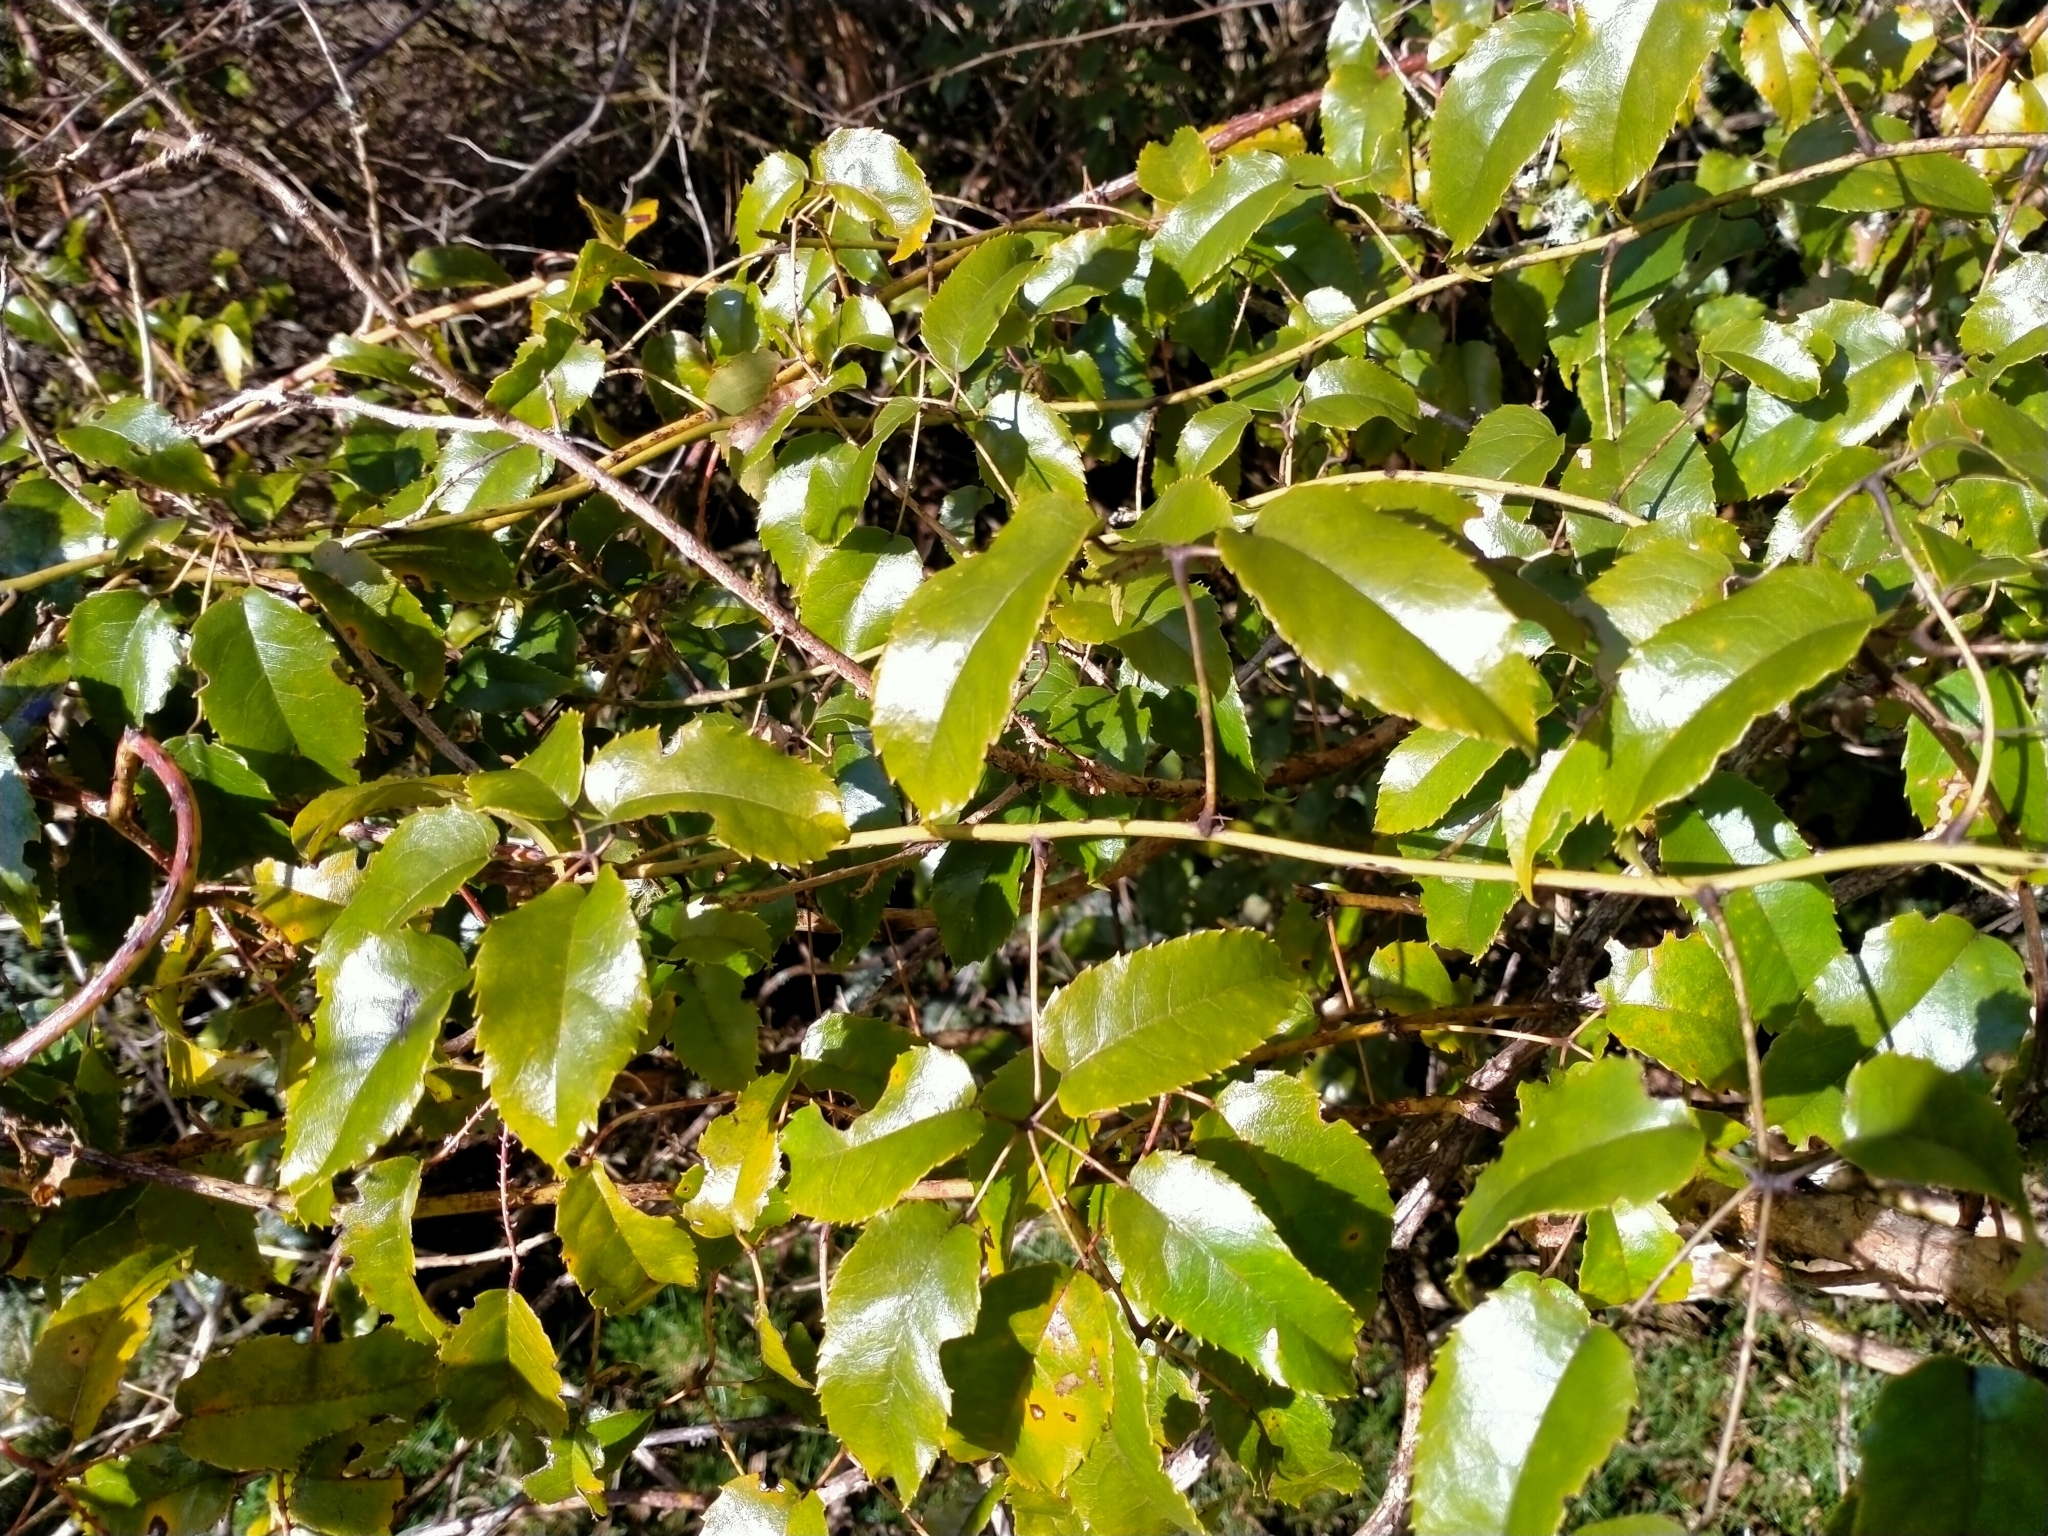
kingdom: Plantae
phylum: Tracheophyta
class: Magnoliopsida
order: Rosales
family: Rosaceae
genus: Rubus
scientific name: Rubus cissoides
